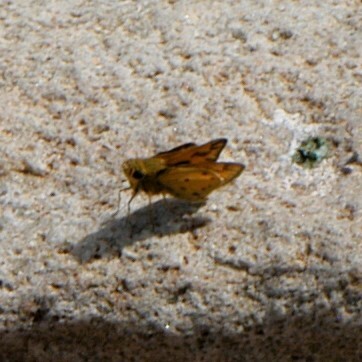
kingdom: Animalia
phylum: Arthropoda
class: Insecta
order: Lepidoptera
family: Hesperiidae
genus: Hylephila
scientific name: Hylephila phyleus
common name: Fiery skipper
